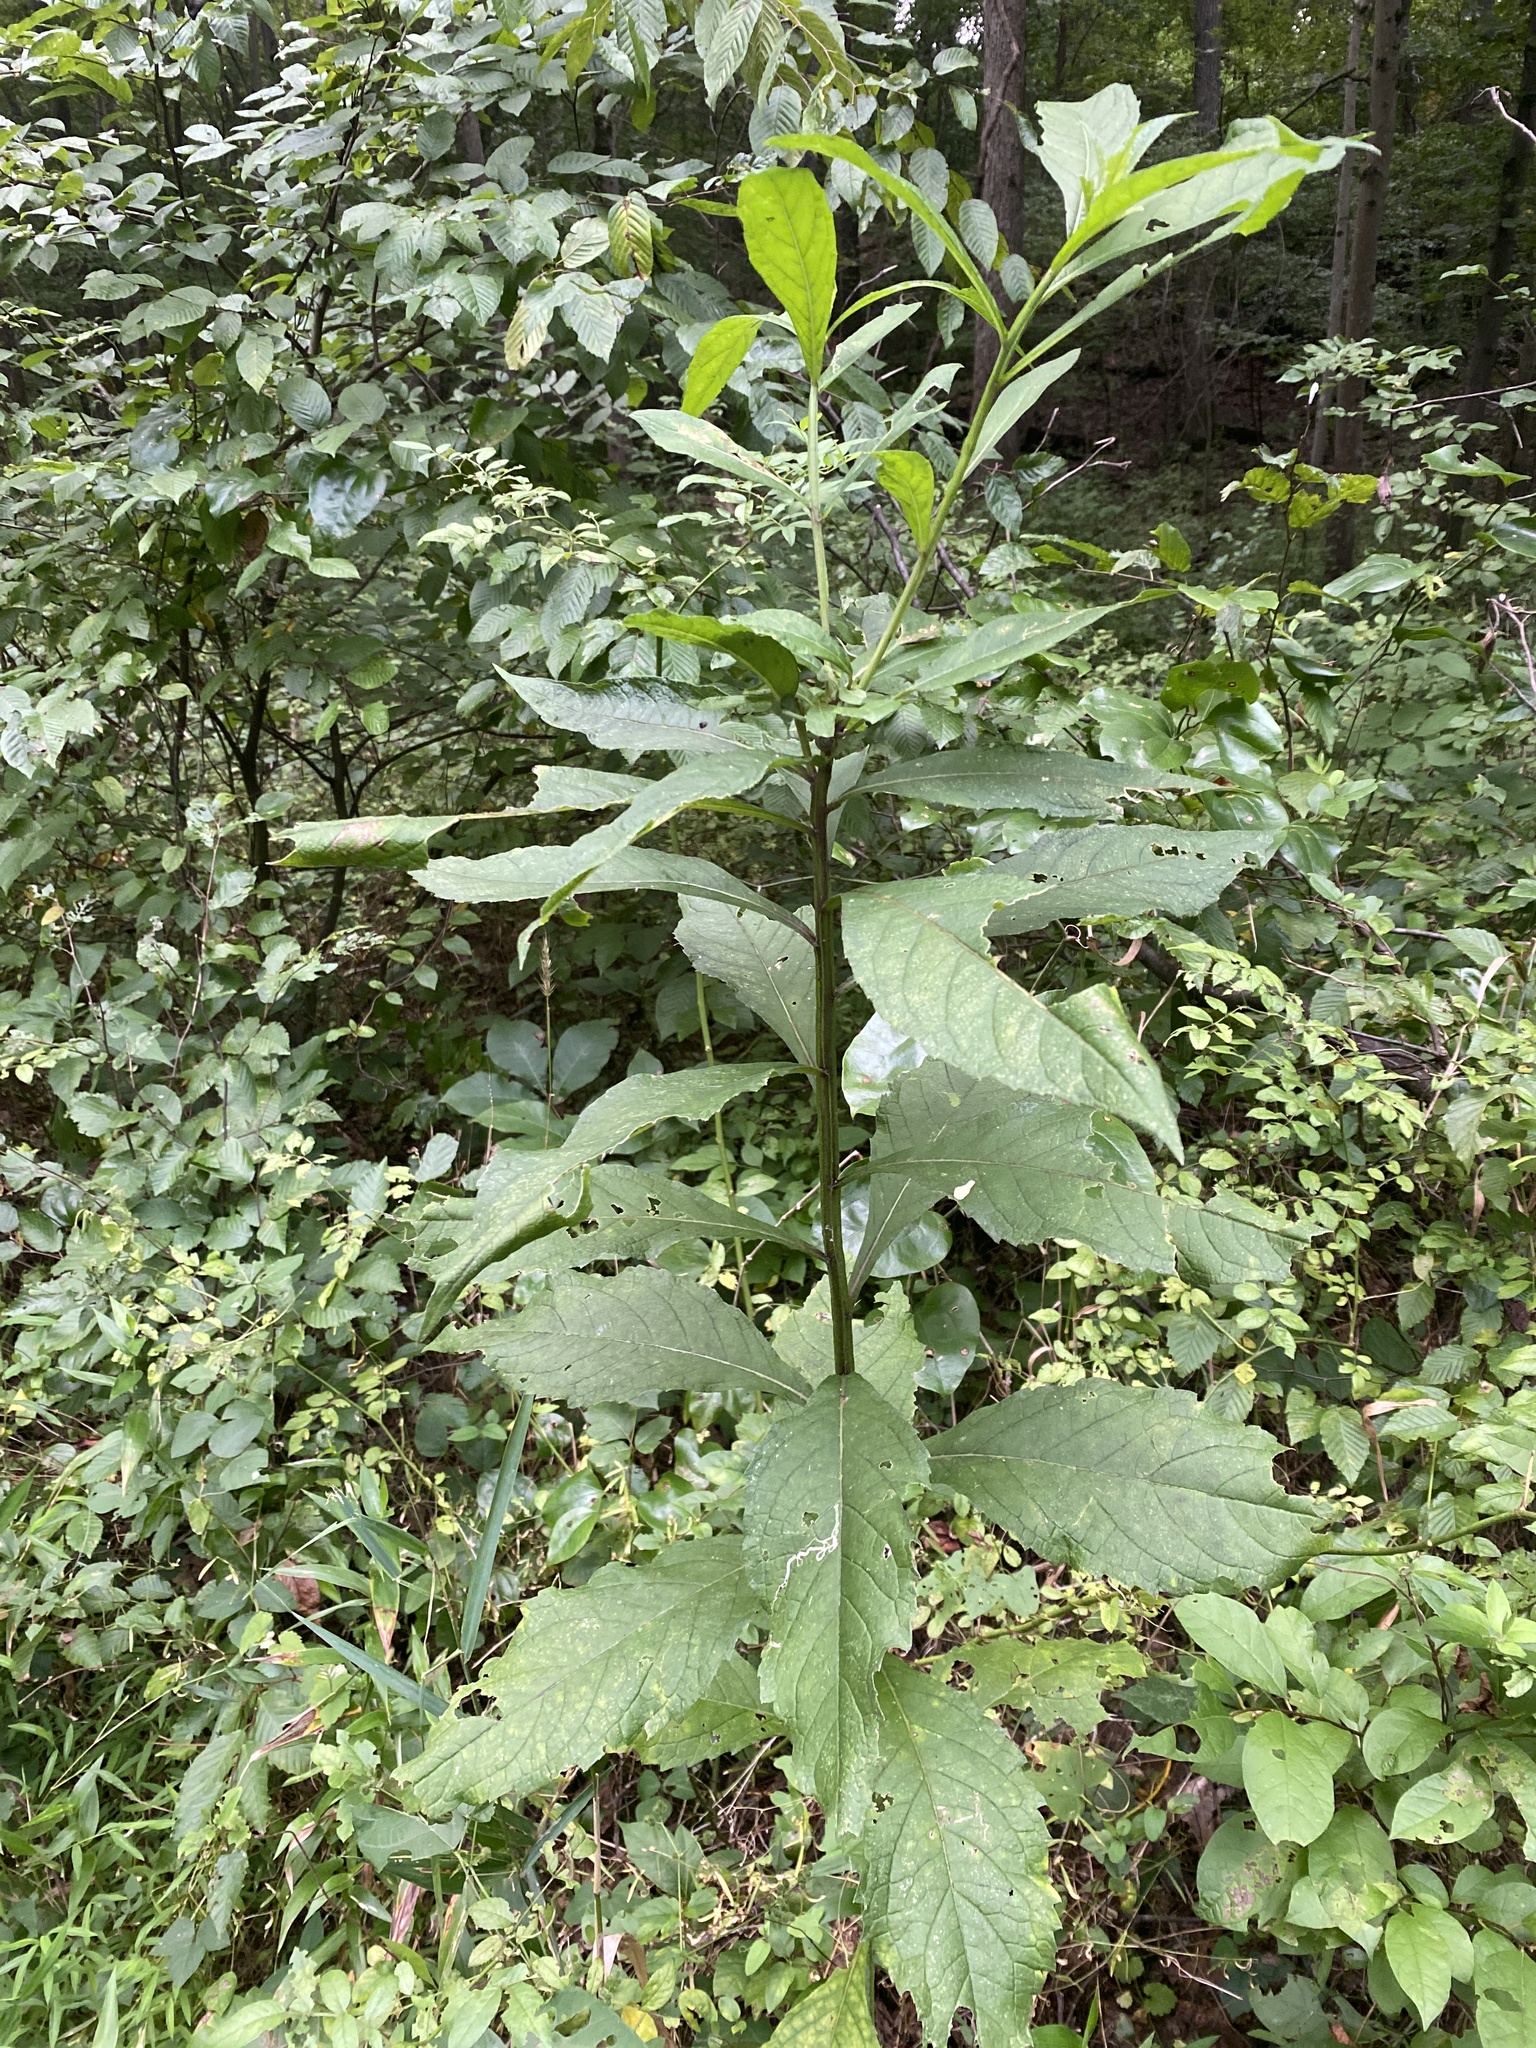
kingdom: Plantae
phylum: Tracheophyta
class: Magnoliopsida
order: Asterales
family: Asteraceae
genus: Verbesina
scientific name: Verbesina alternifolia
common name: Wingstem
